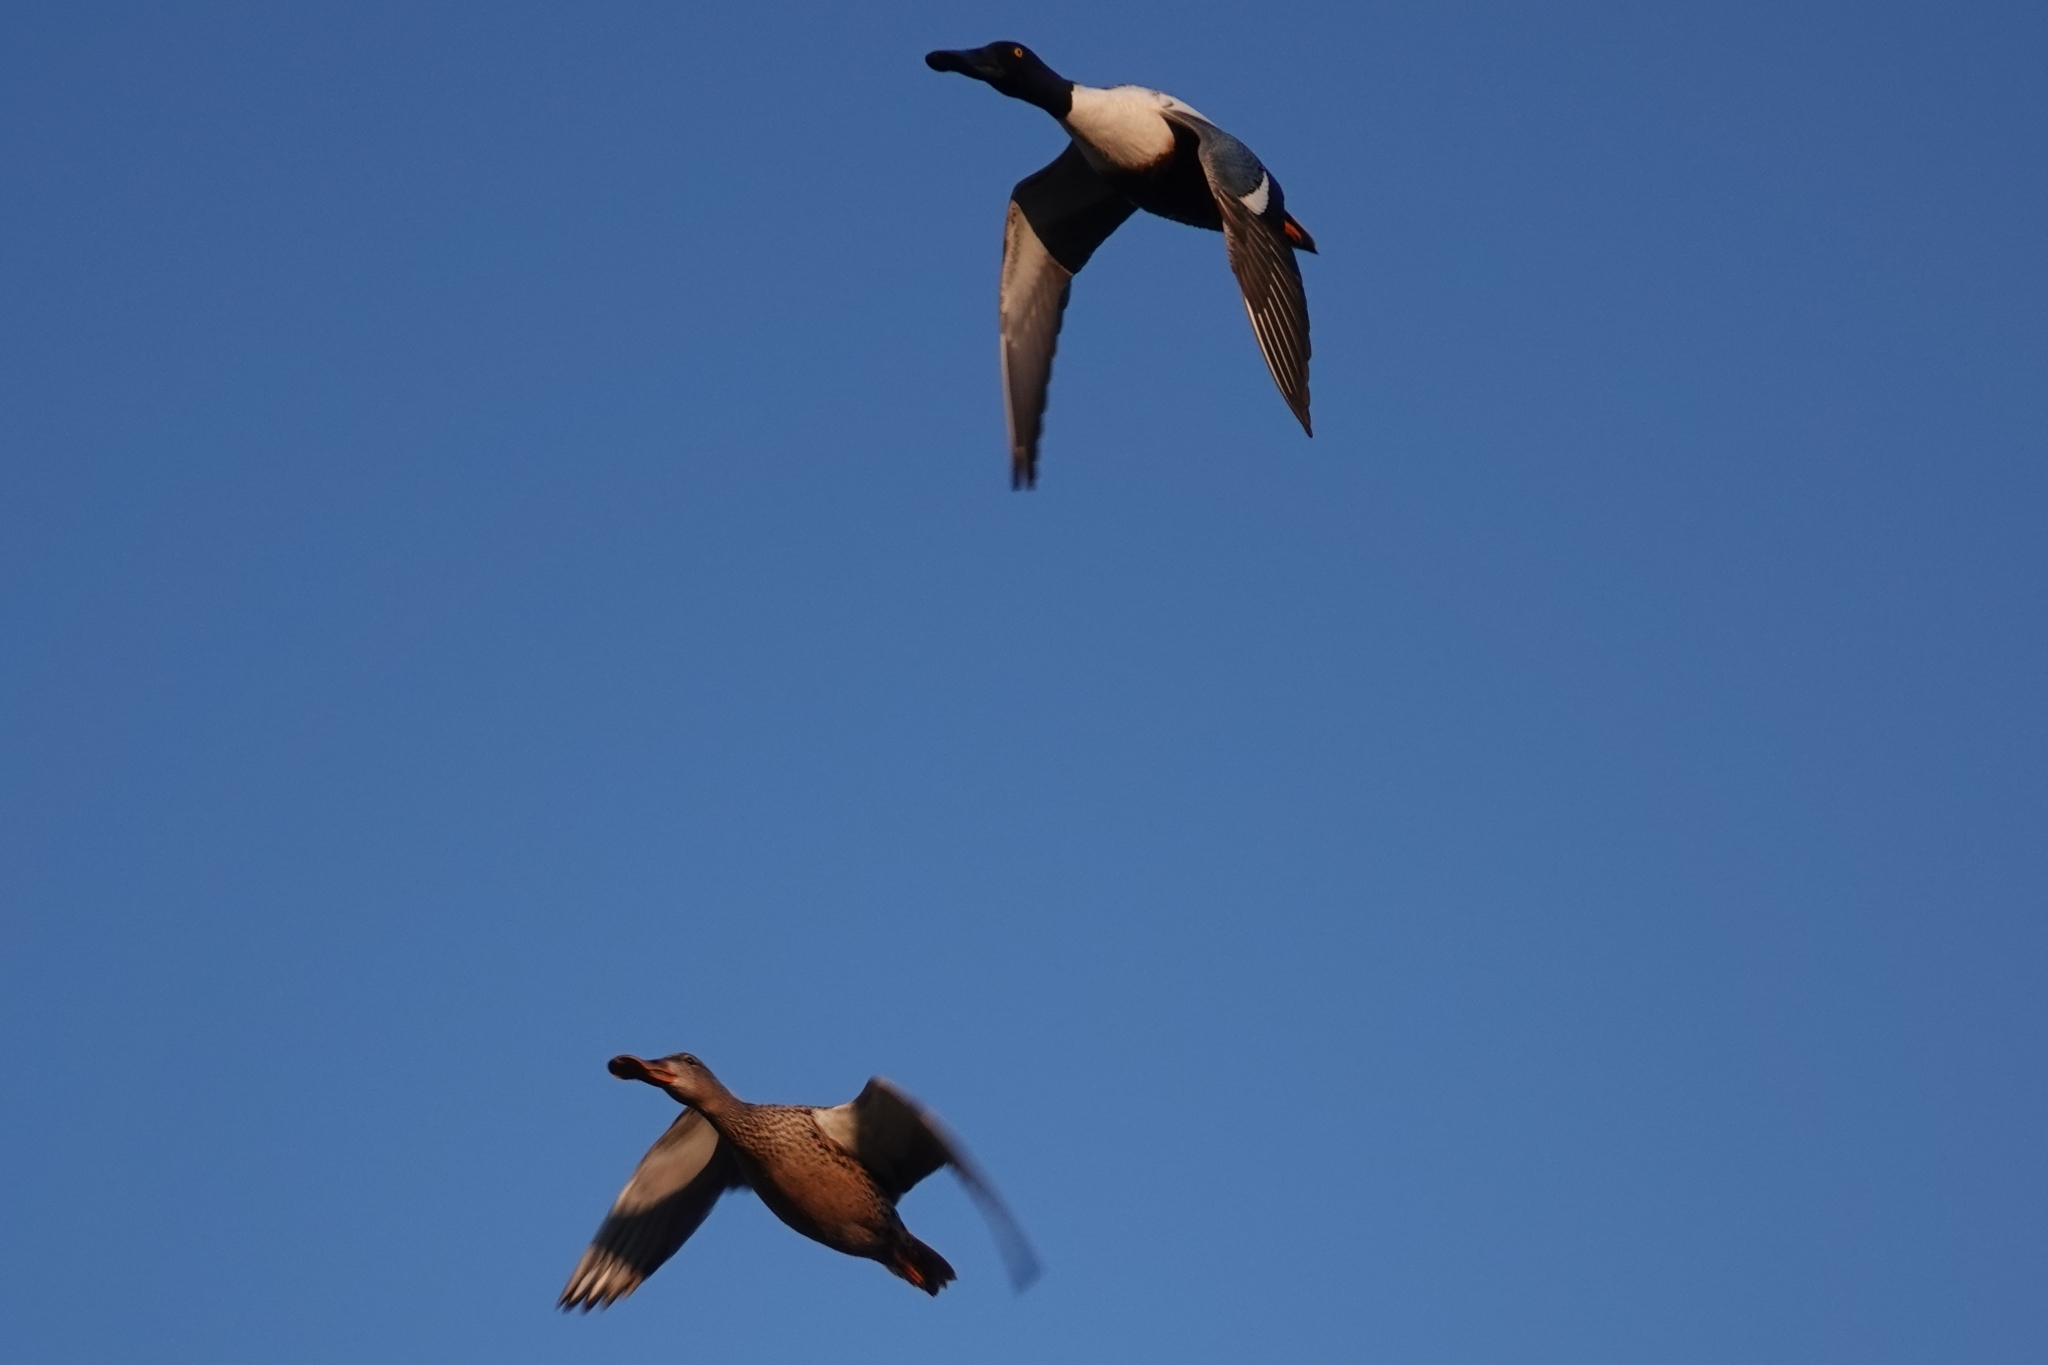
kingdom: Animalia
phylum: Chordata
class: Aves
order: Anseriformes
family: Anatidae
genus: Spatula
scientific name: Spatula clypeata
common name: Northern shoveler
